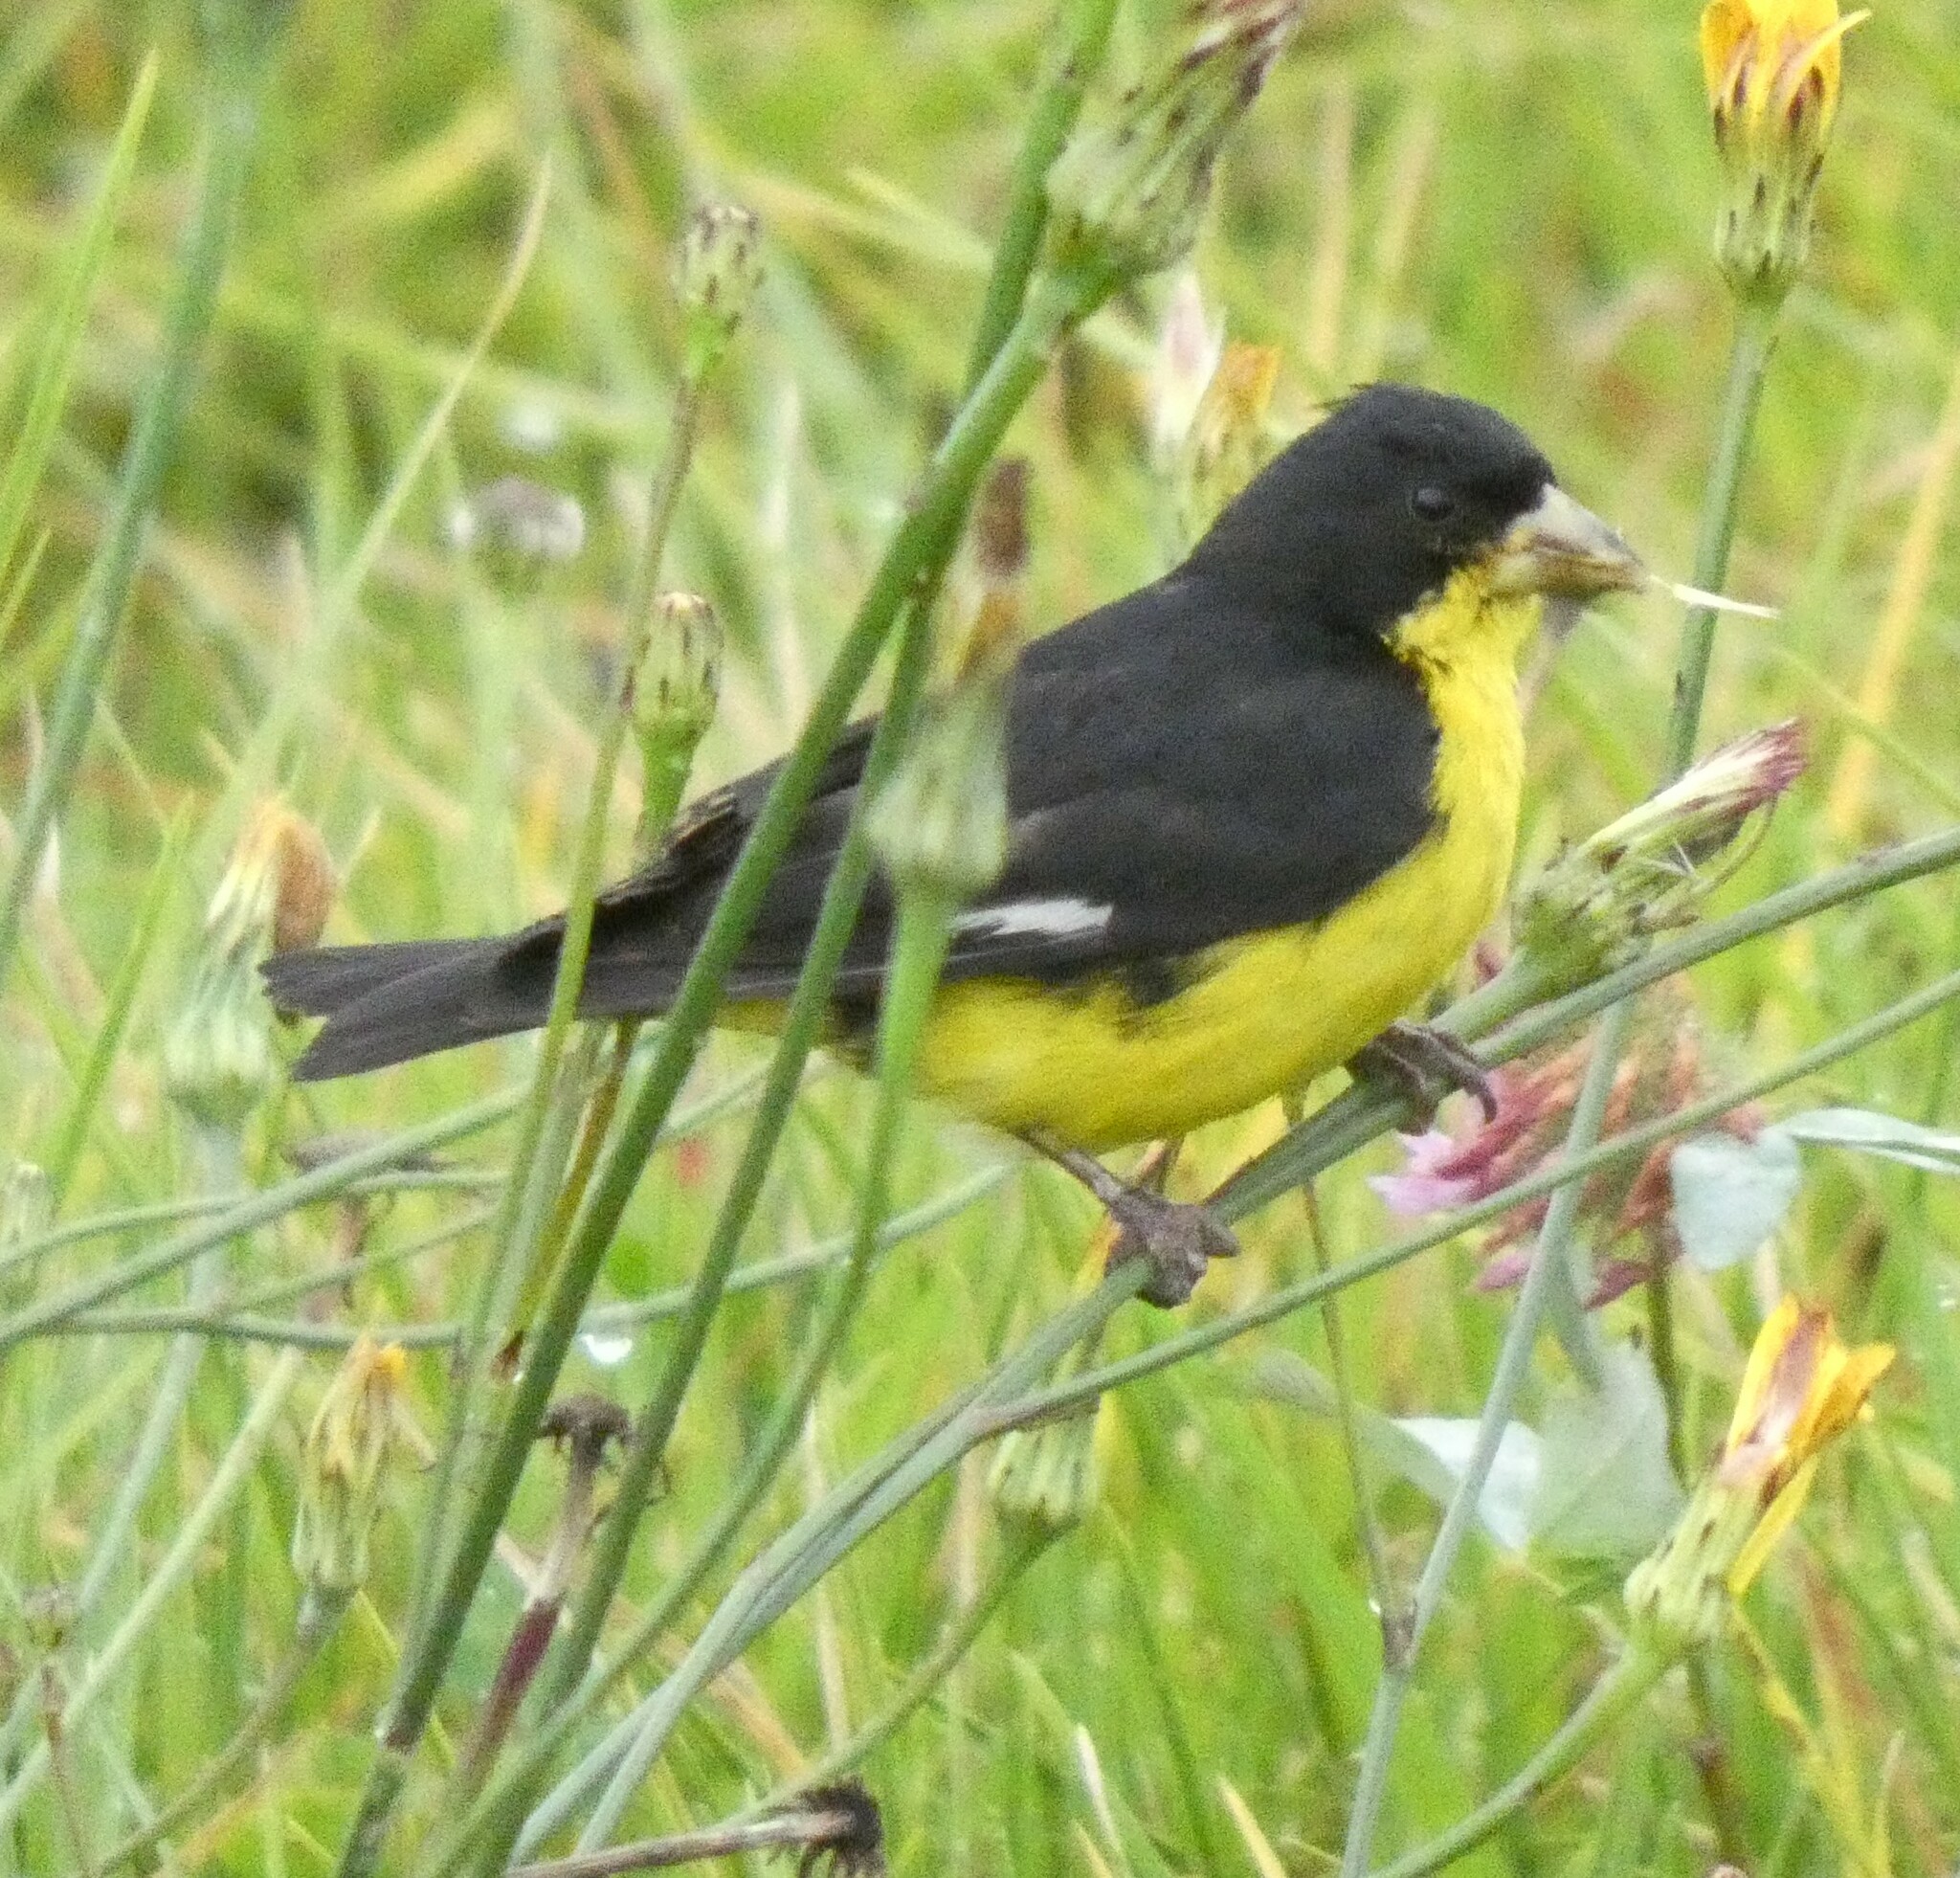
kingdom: Animalia
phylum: Chordata
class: Aves
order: Passeriformes
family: Fringillidae
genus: Spinus
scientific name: Spinus psaltria
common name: Lesser goldfinch
